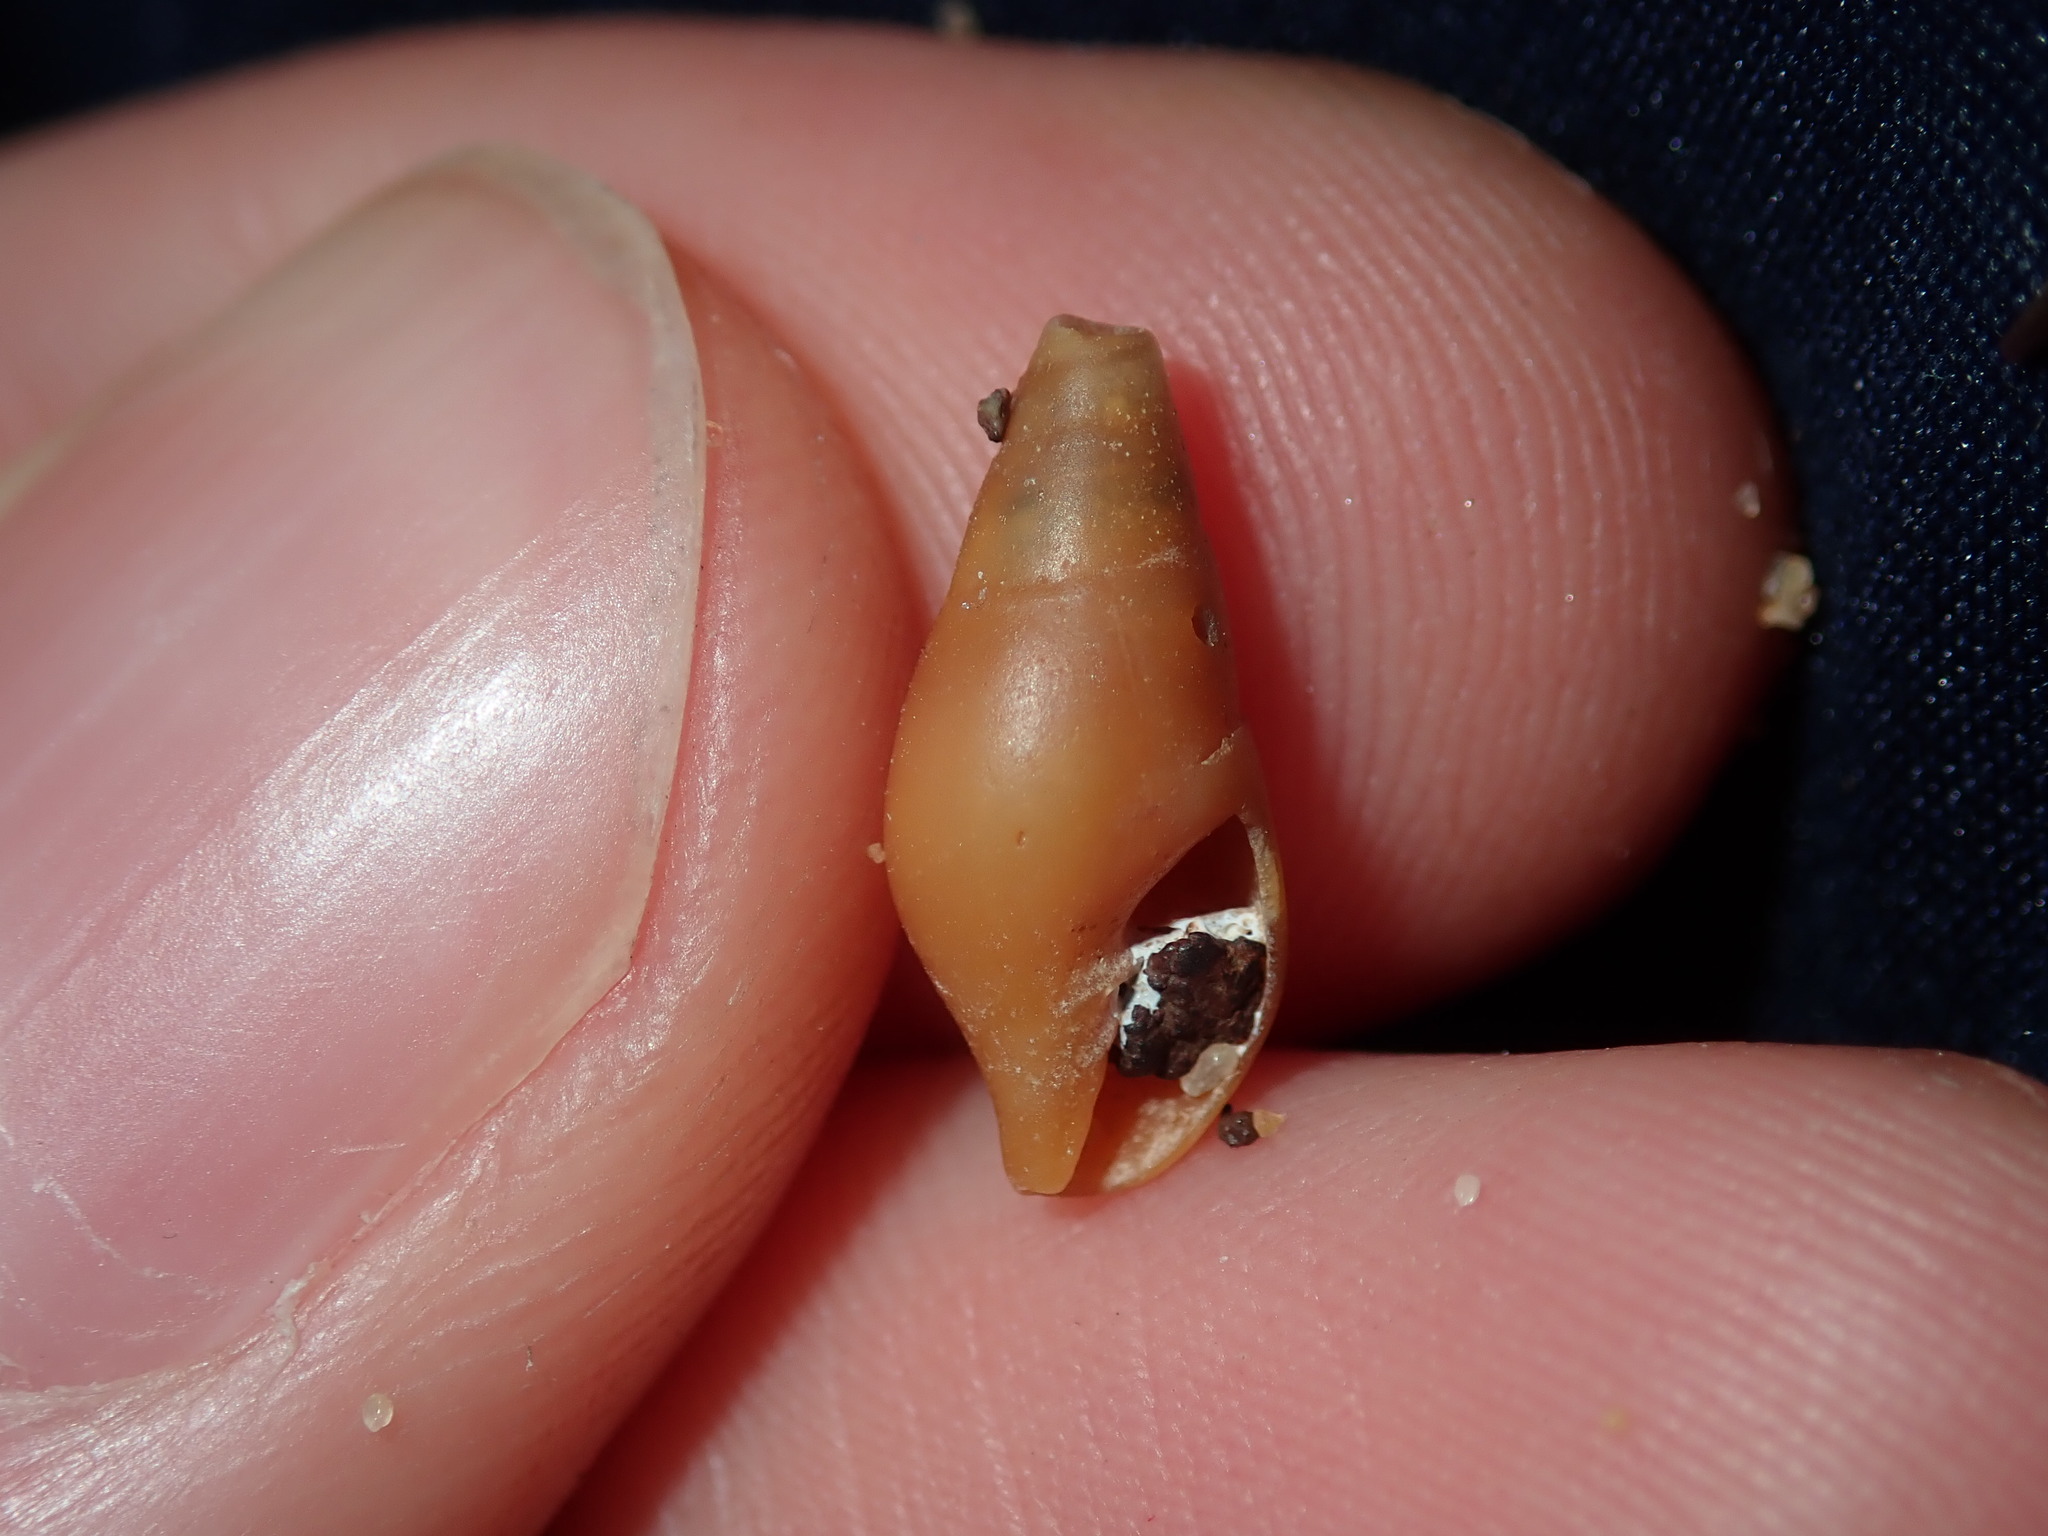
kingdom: Animalia
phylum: Mollusca
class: Gastropoda
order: Neogastropoda
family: Mitridae
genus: Isara
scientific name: Isara badia
